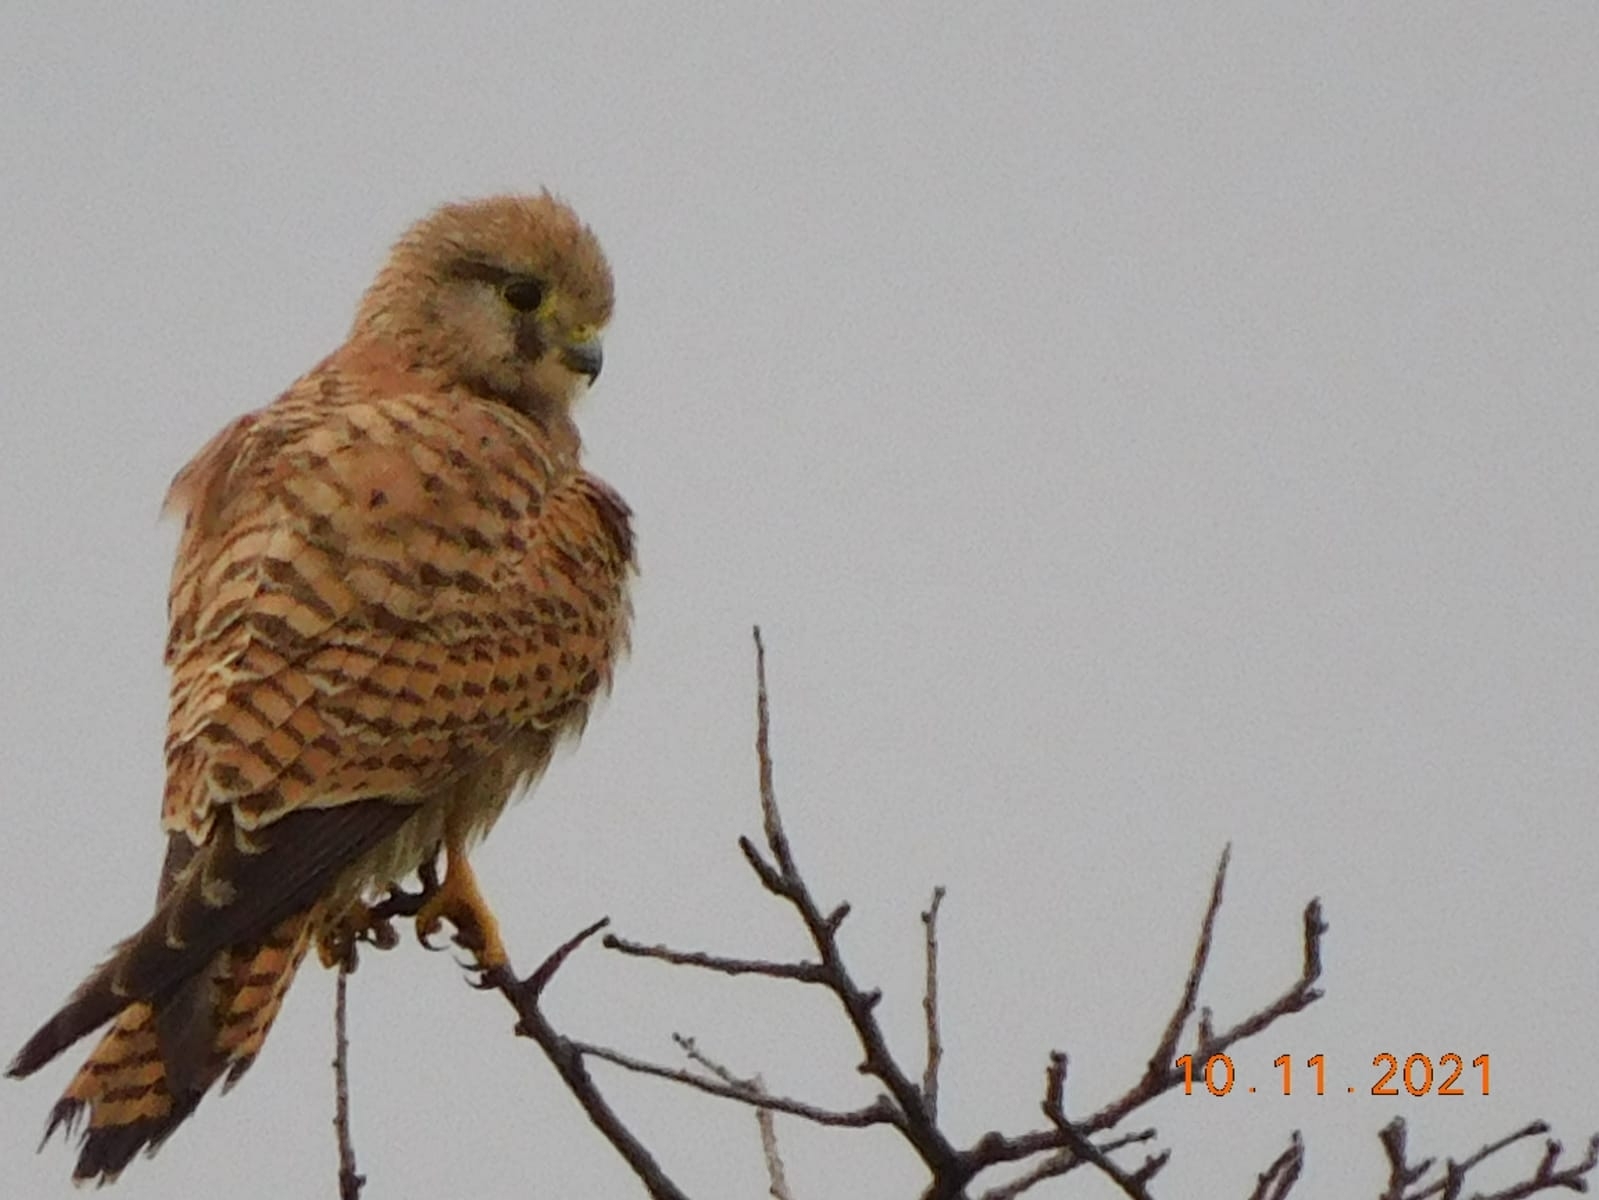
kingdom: Animalia
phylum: Chordata
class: Aves
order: Falconiformes
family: Falconidae
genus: Falco
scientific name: Falco tinnunculus
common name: Common kestrel
